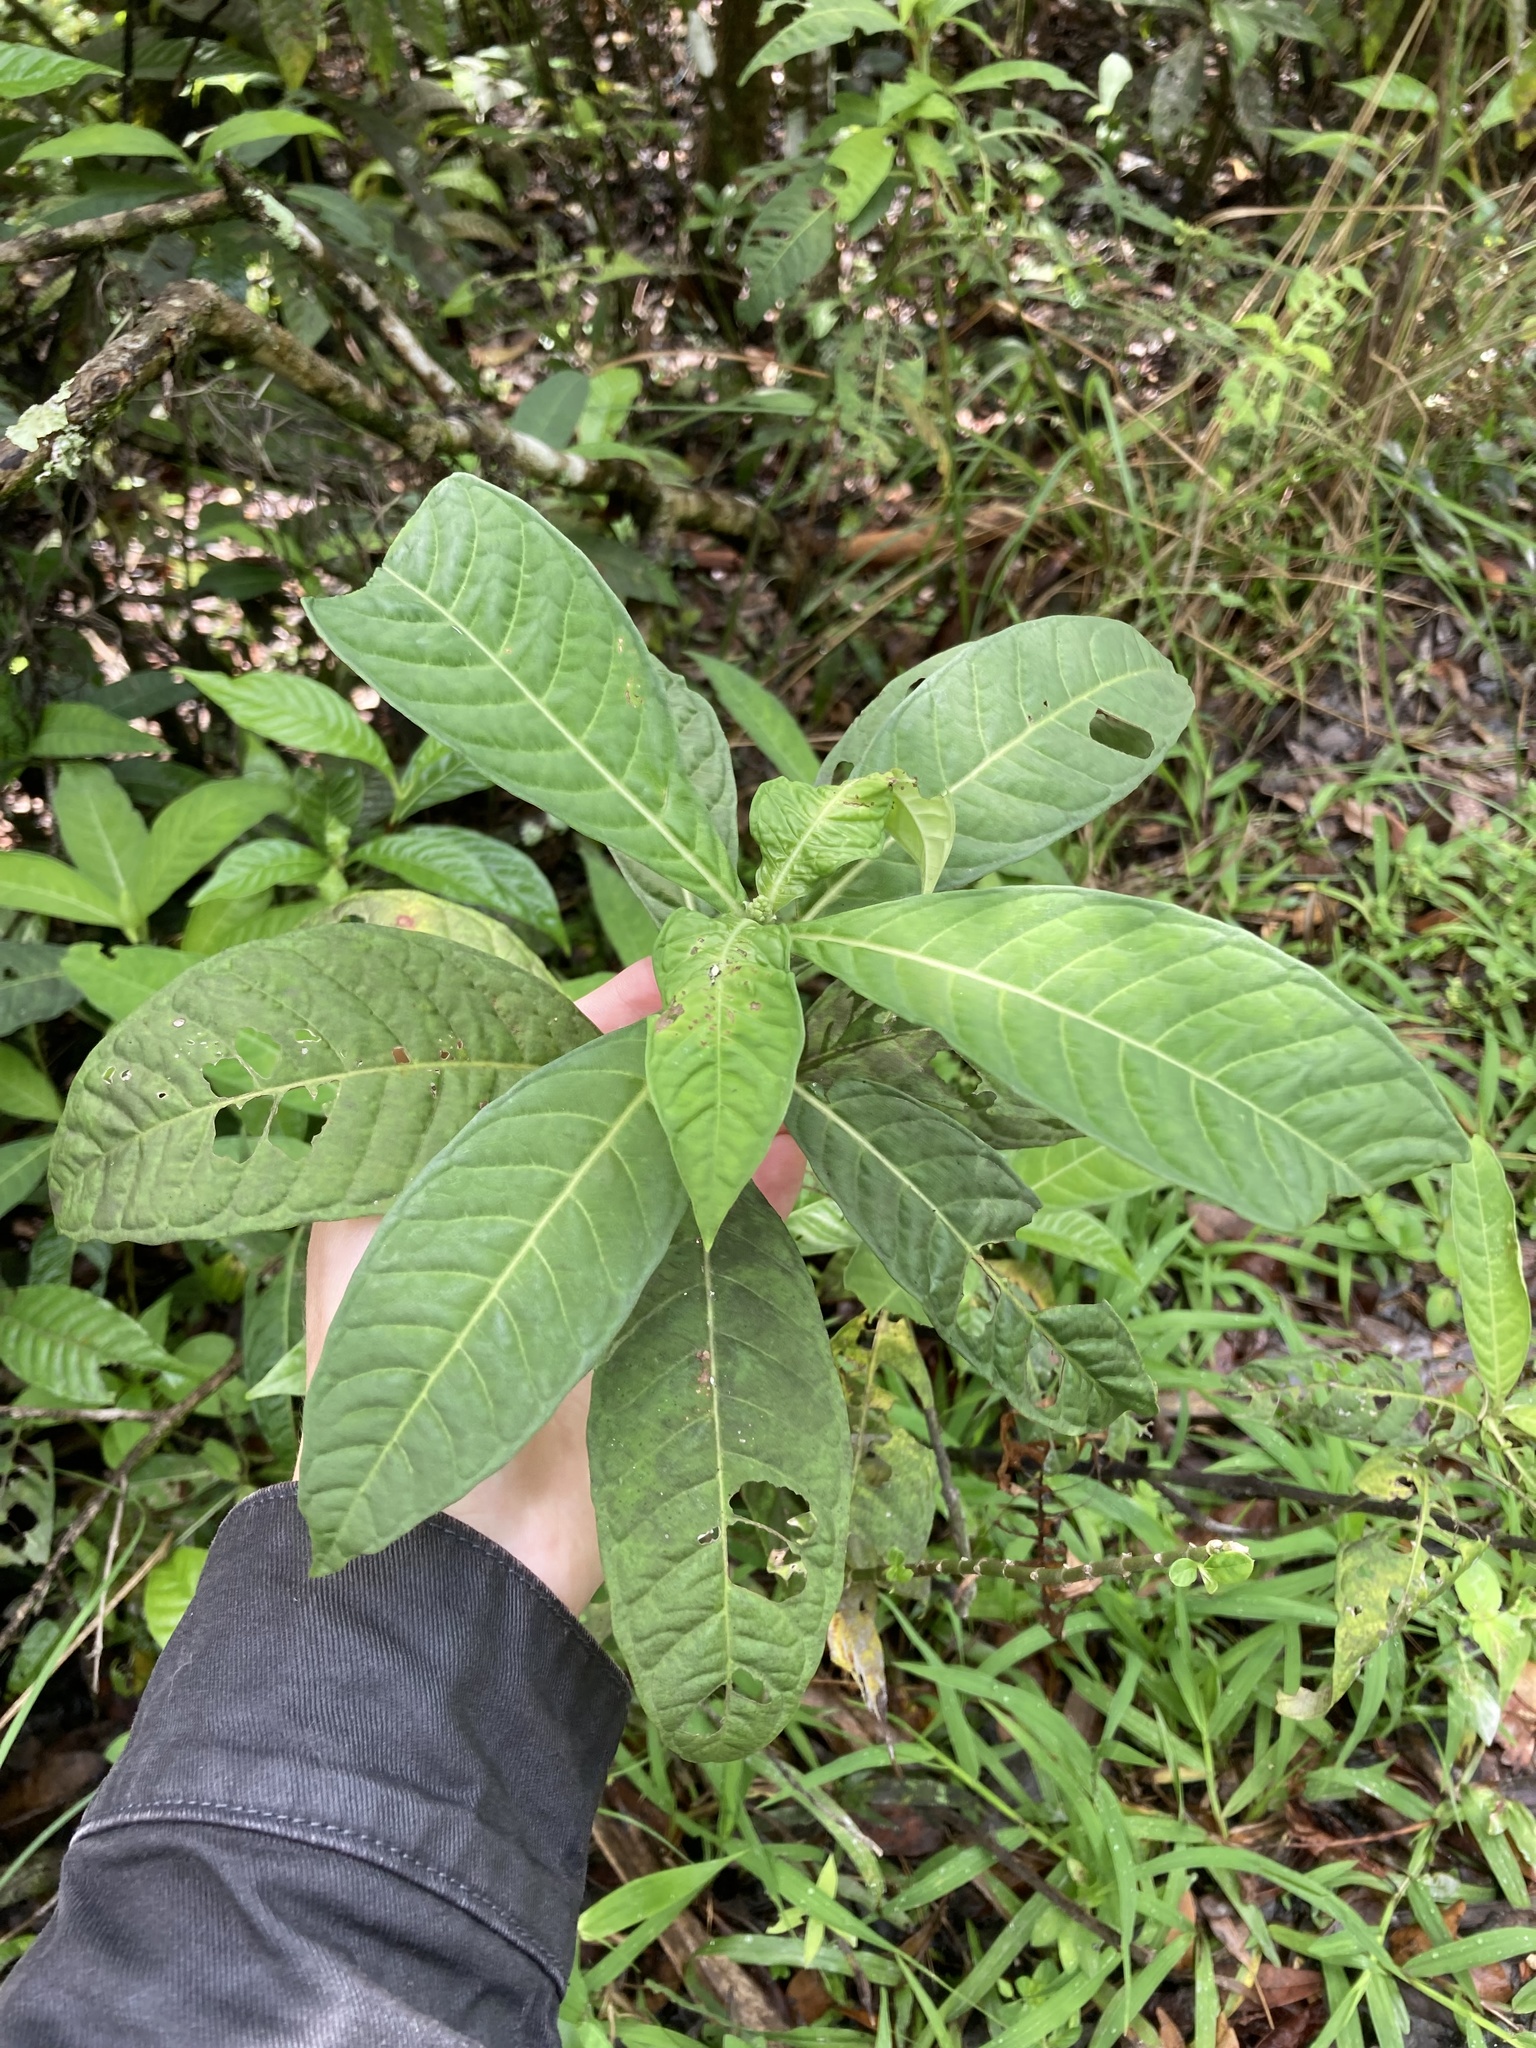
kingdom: Plantae
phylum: Tracheophyta
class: Magnoliopsida
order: Gentianales
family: Rubiaceae
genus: Psychotria
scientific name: Psychotria tenuifolia
